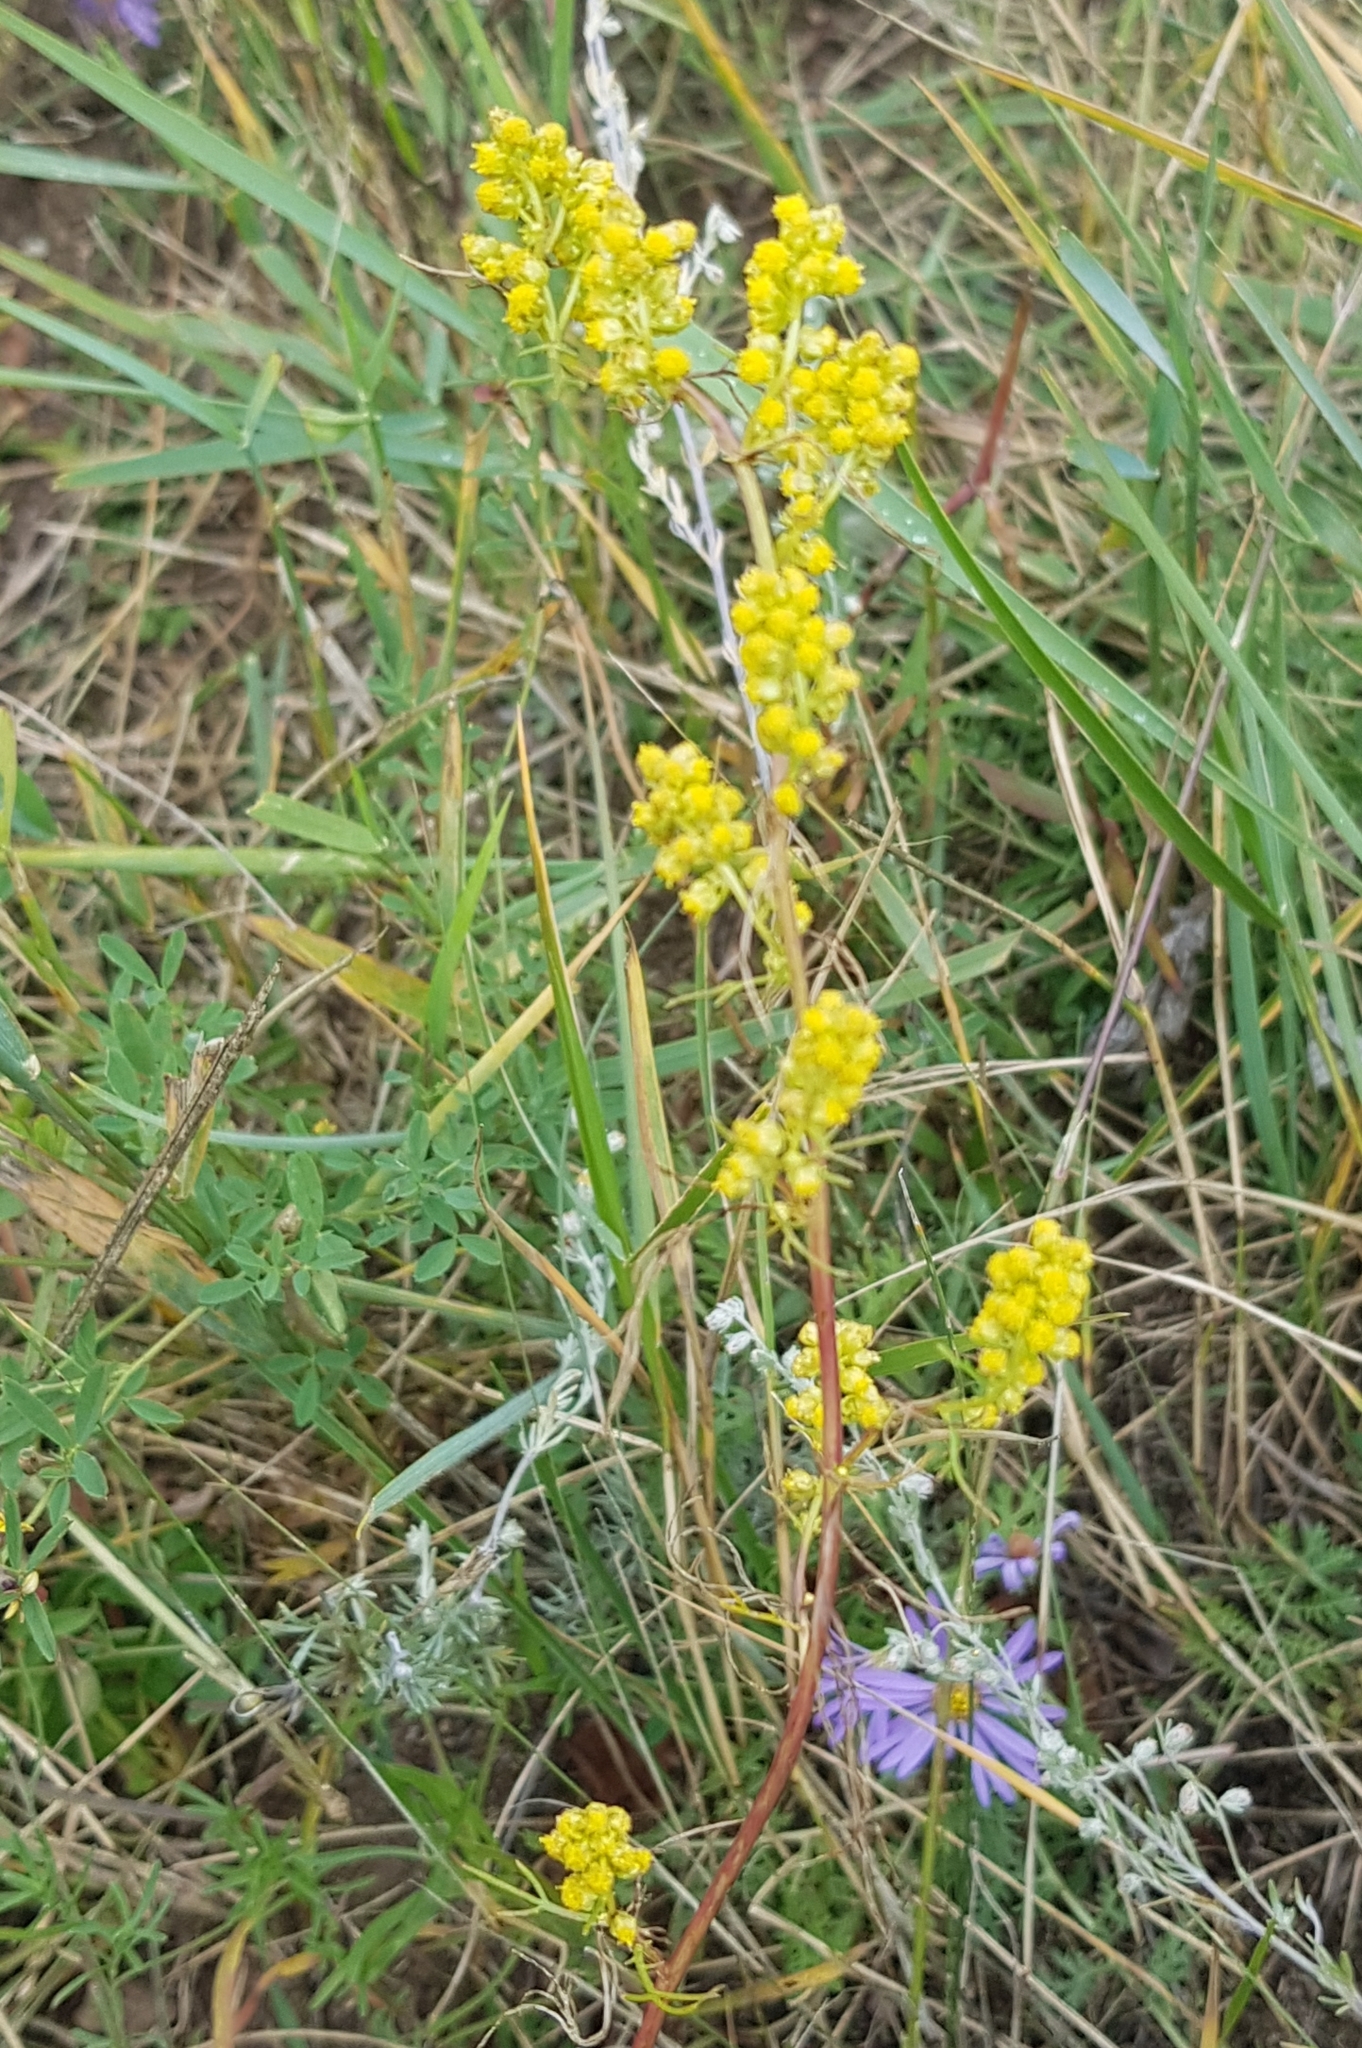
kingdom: Plantae
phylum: Tracheophyta
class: Magnoliopsida
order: Asterales
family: Asteraceae
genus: Artemisia
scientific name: Artemisia palustris
